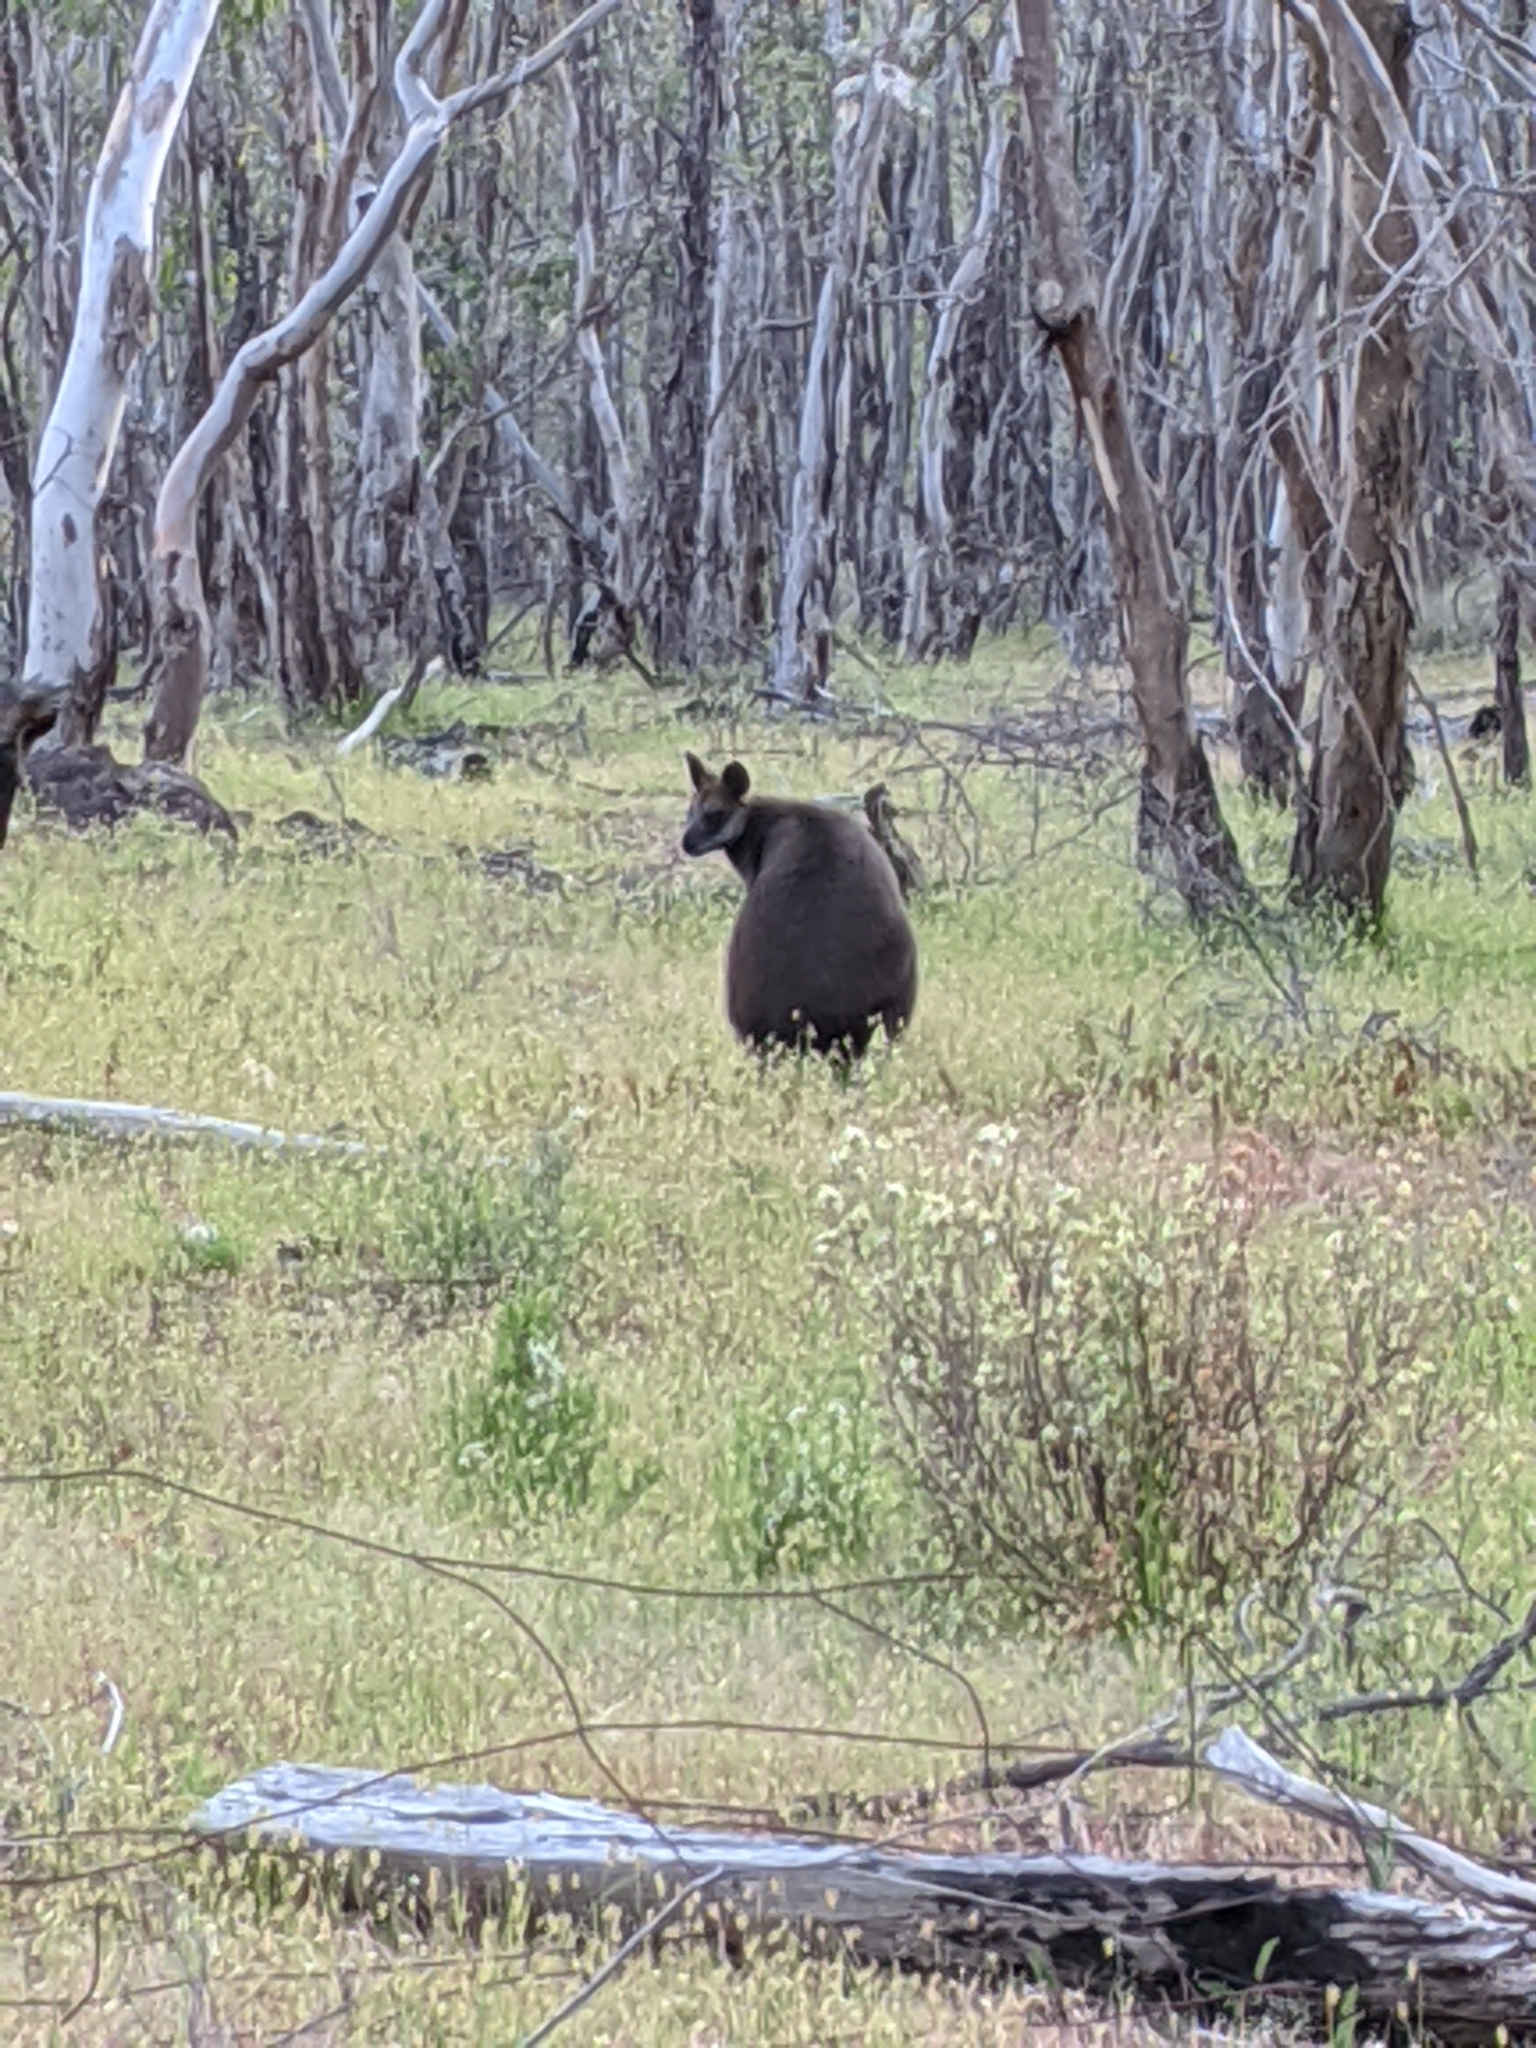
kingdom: Animalia
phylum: Chordata
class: Mammalia
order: Diprotodontia
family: Macropodidae
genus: Wallabia
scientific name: Wallabia bicolor
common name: Swamp wallaby
